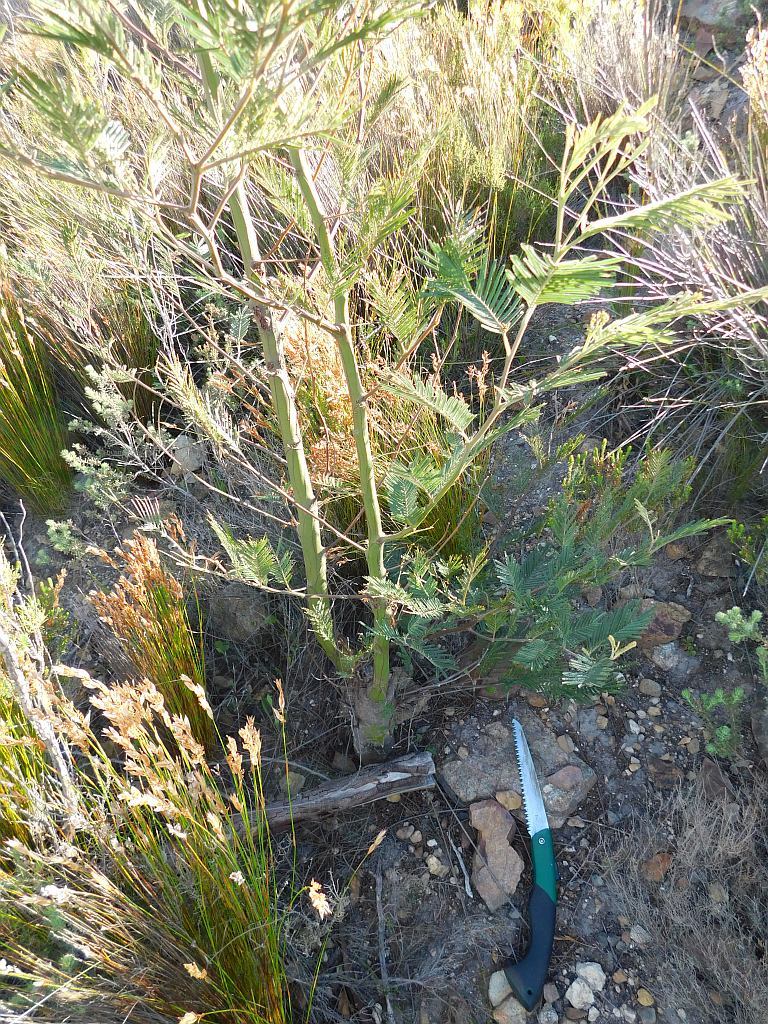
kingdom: Plantae
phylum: Tracheophyta
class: Magnoliopsida
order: Fabales
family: Fabaceae
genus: Acacia
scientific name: Acacia mearnsii
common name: Black wattle
